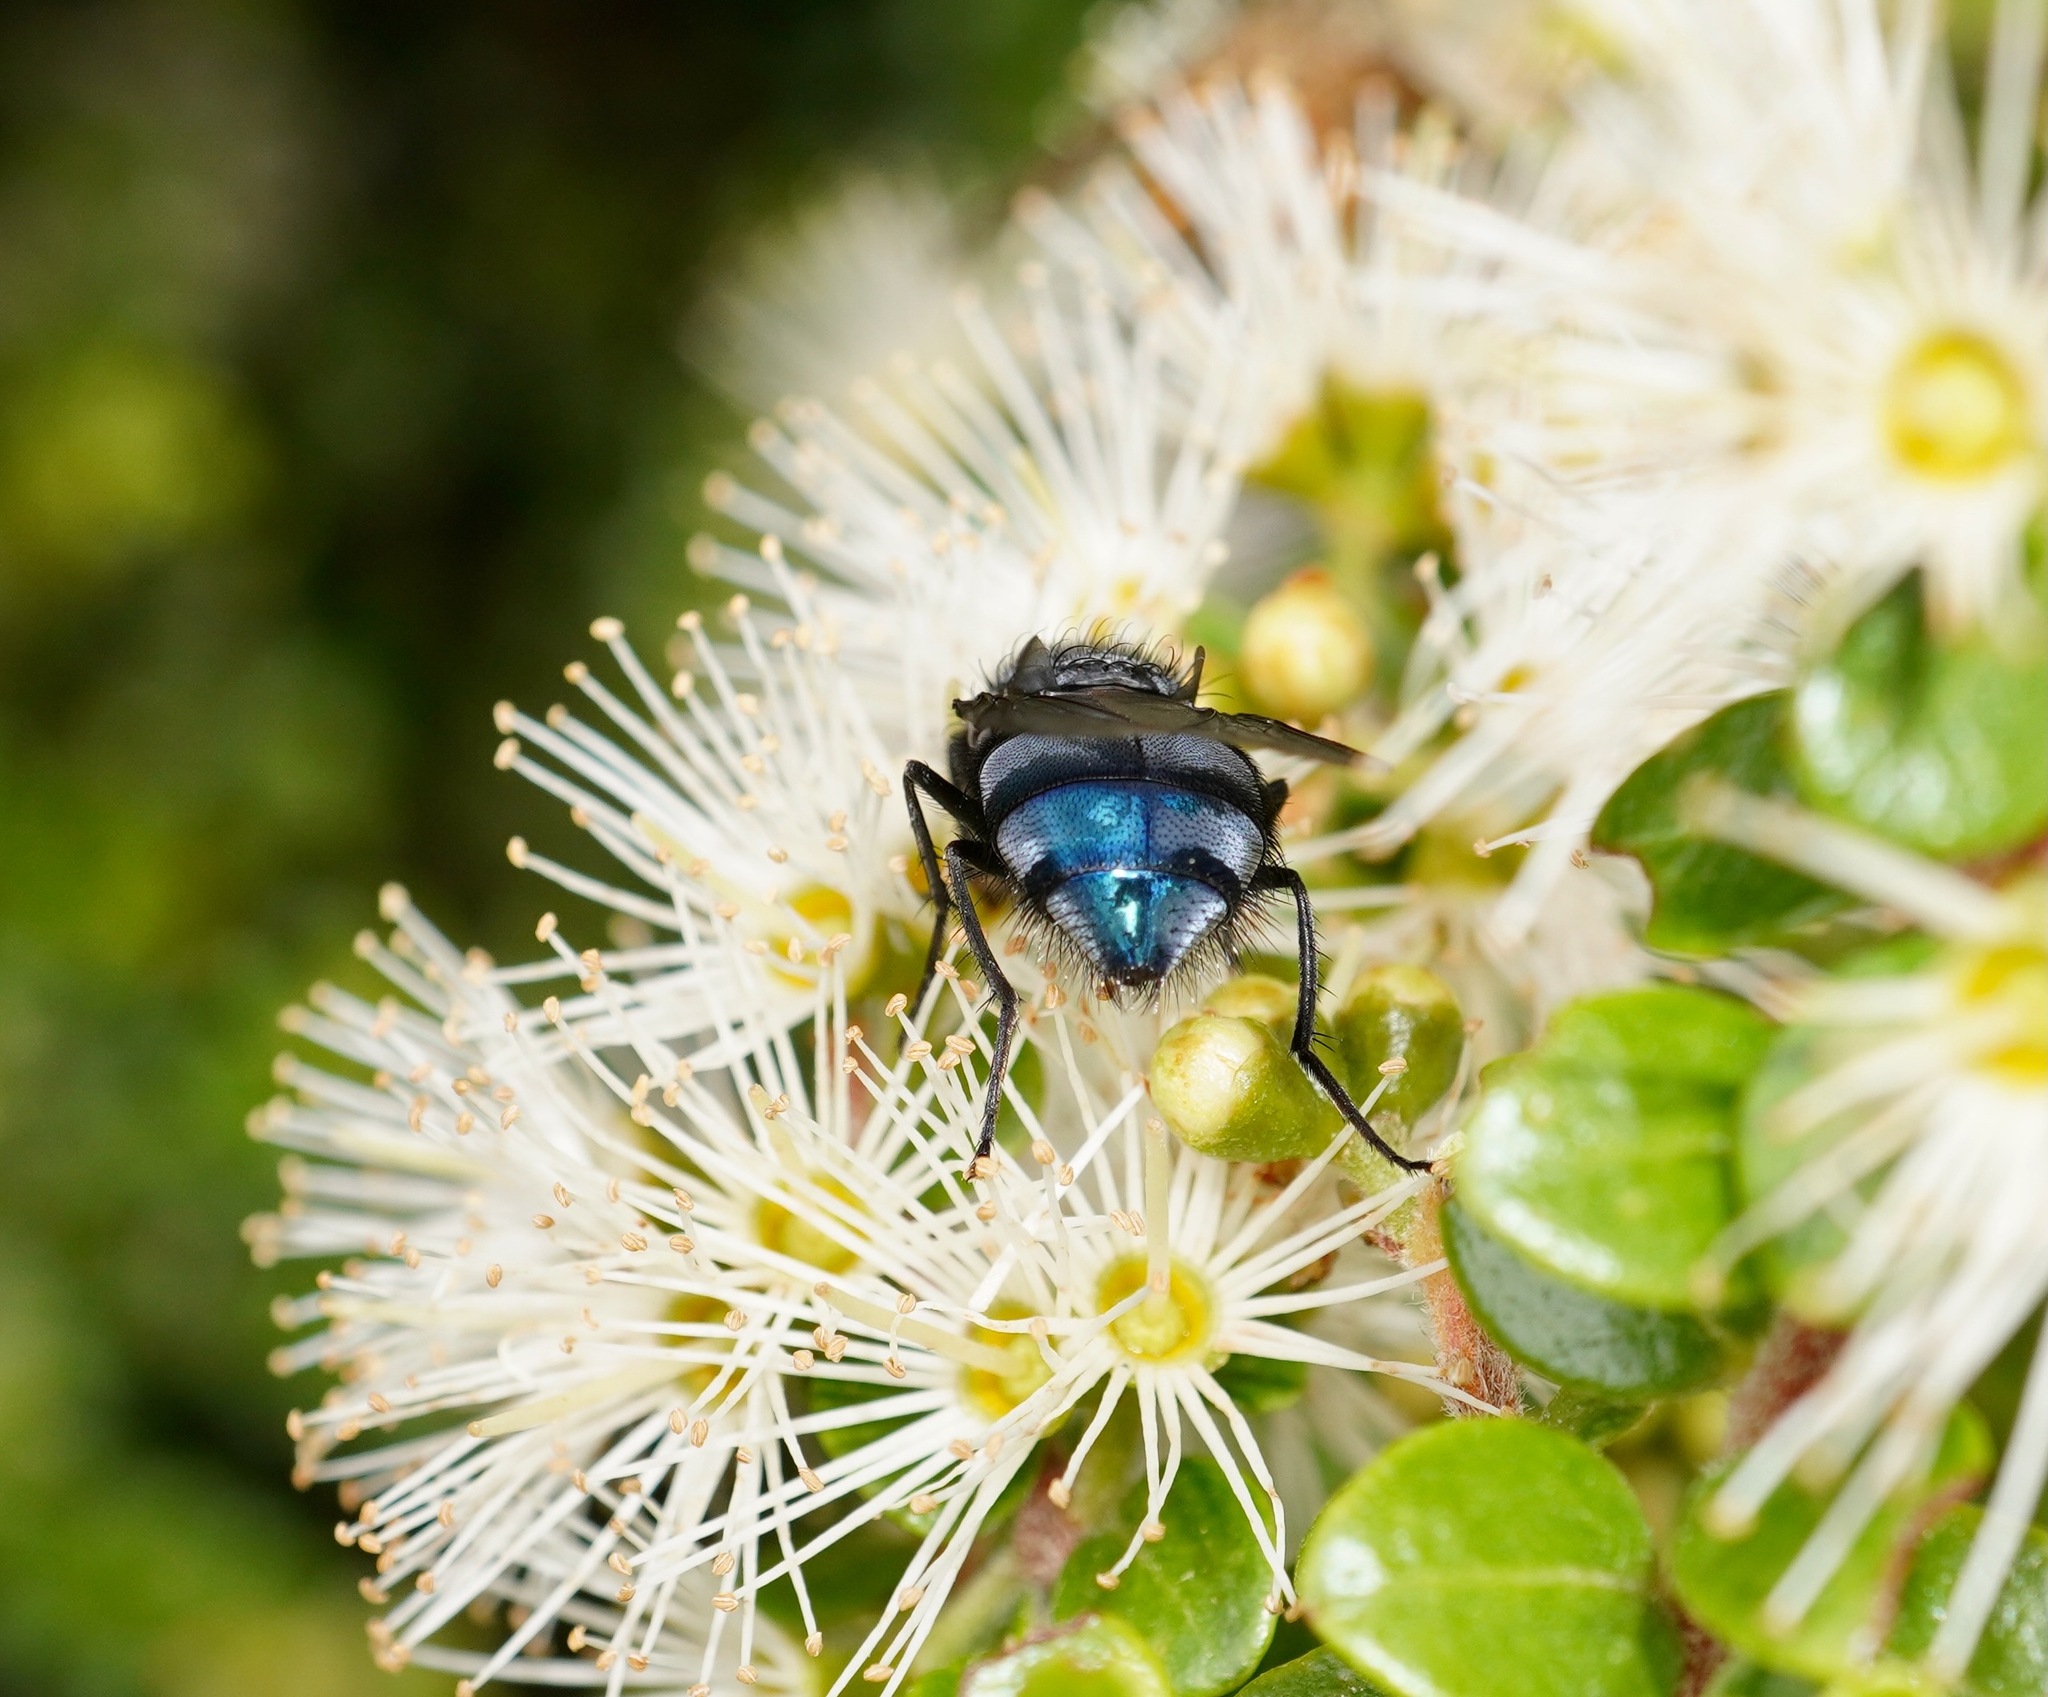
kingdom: Animalia
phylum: Arthropoda
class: Insecta
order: Diptera
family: Calliphoridae
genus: Calliphora
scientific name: Calliphora vicina
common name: Common blow flie
